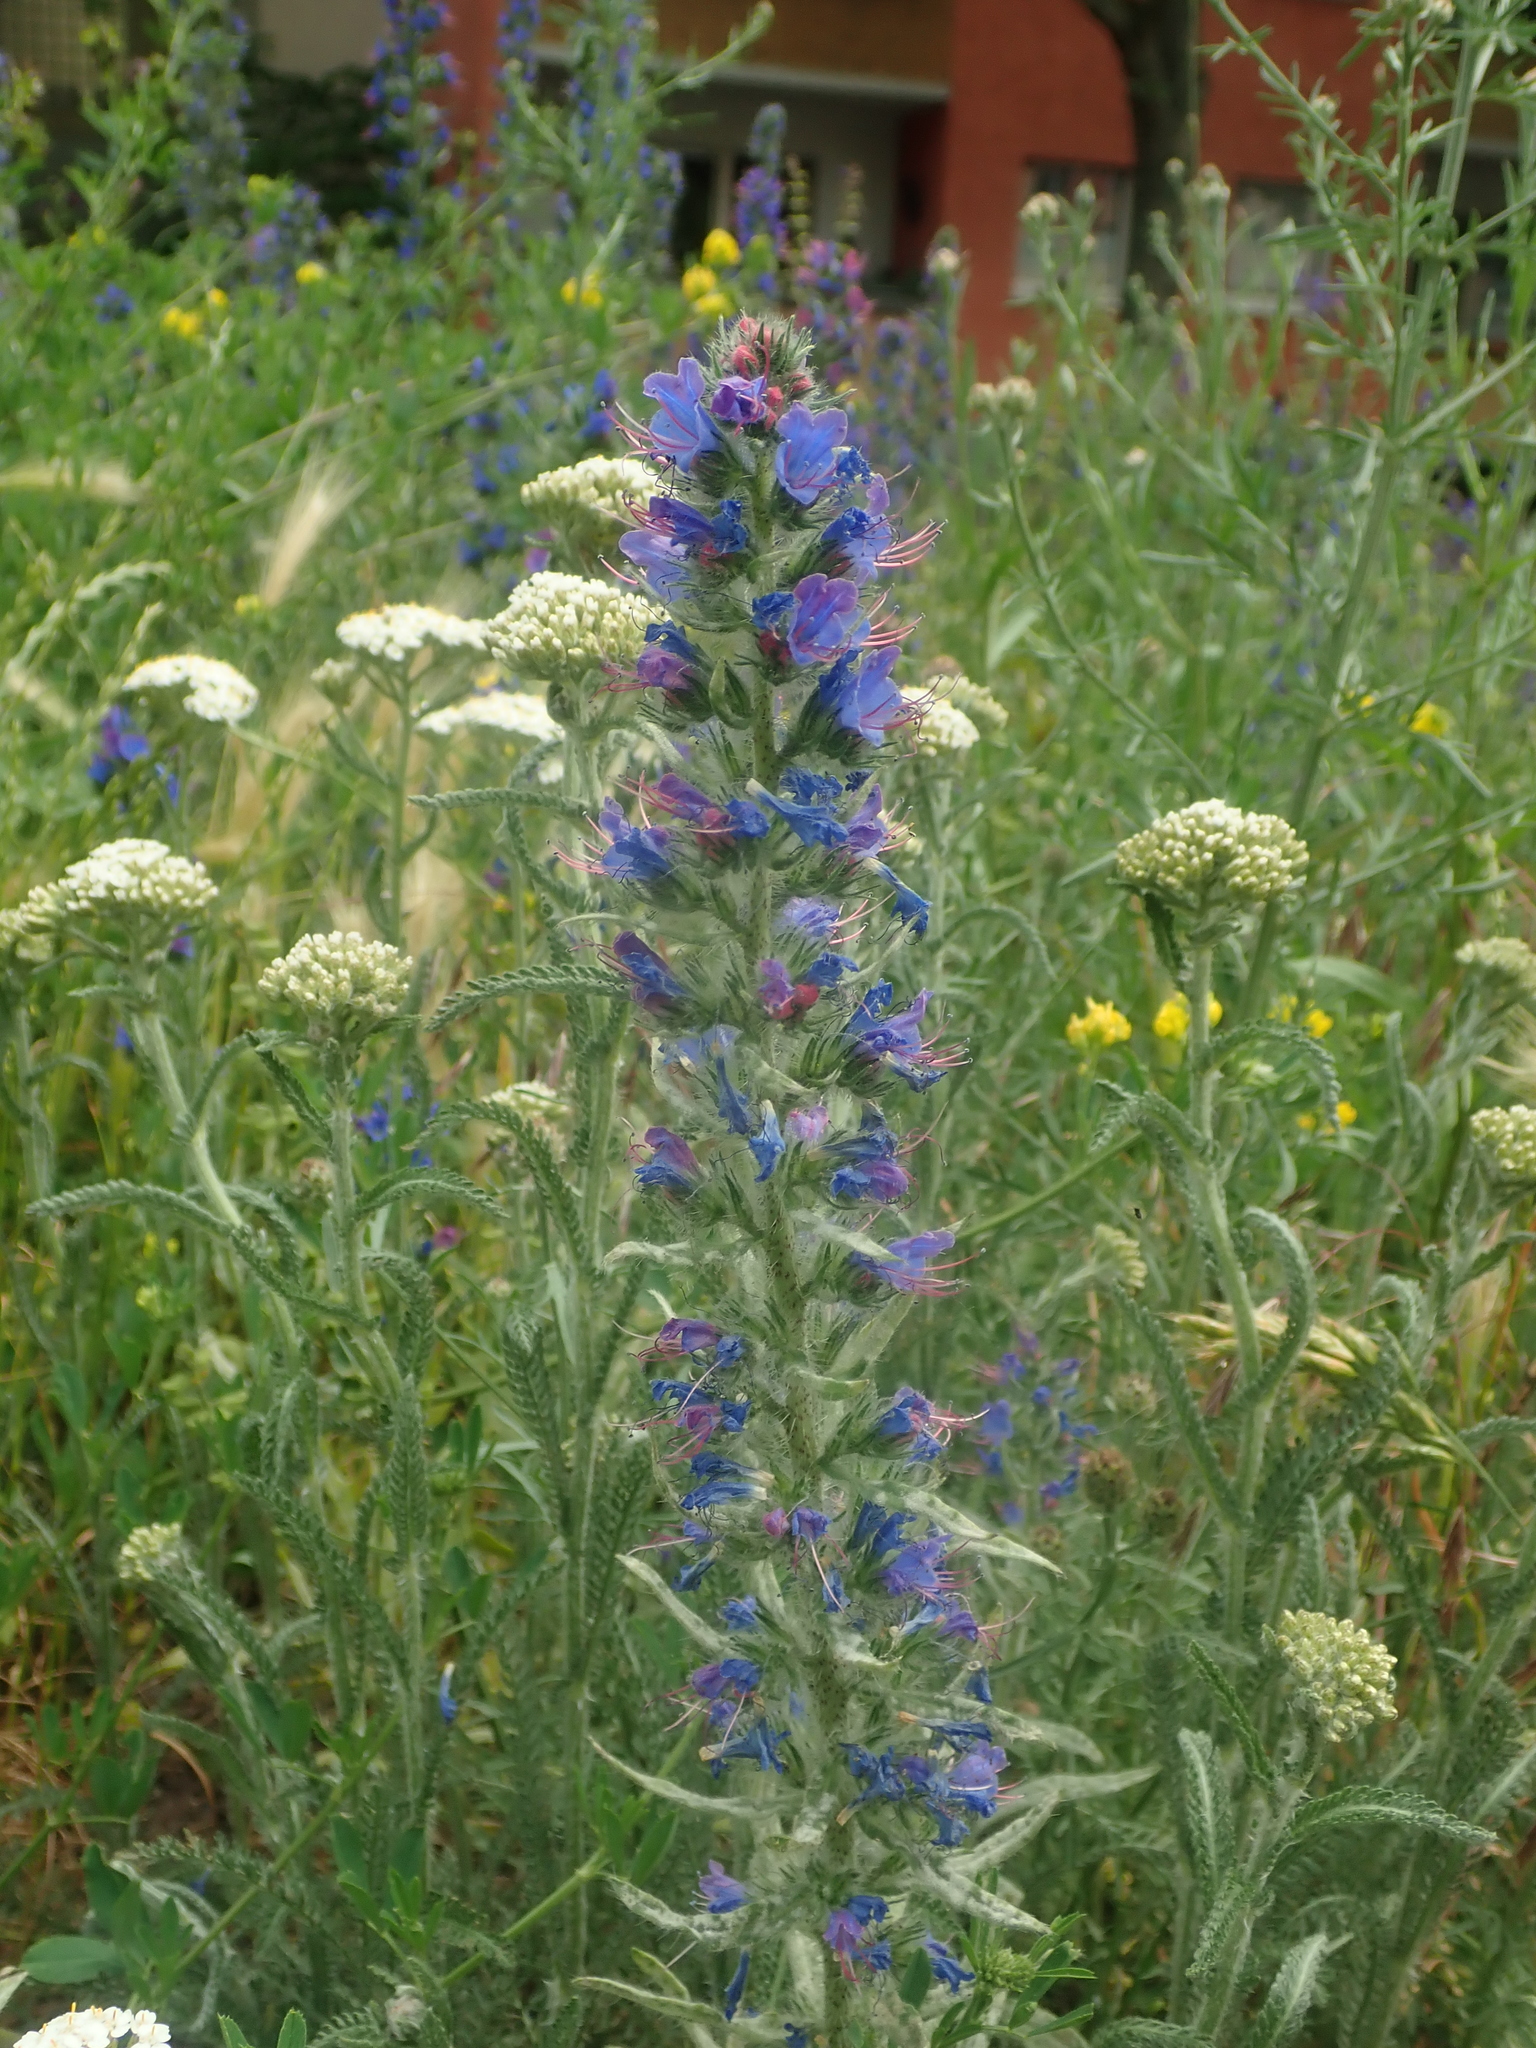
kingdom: Plantae
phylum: Tracheophyta
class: Magnoliopsida
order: Boraginales
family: Boraginaceae
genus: Echium
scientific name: Echium vulgare
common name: Common viper's bugloss
